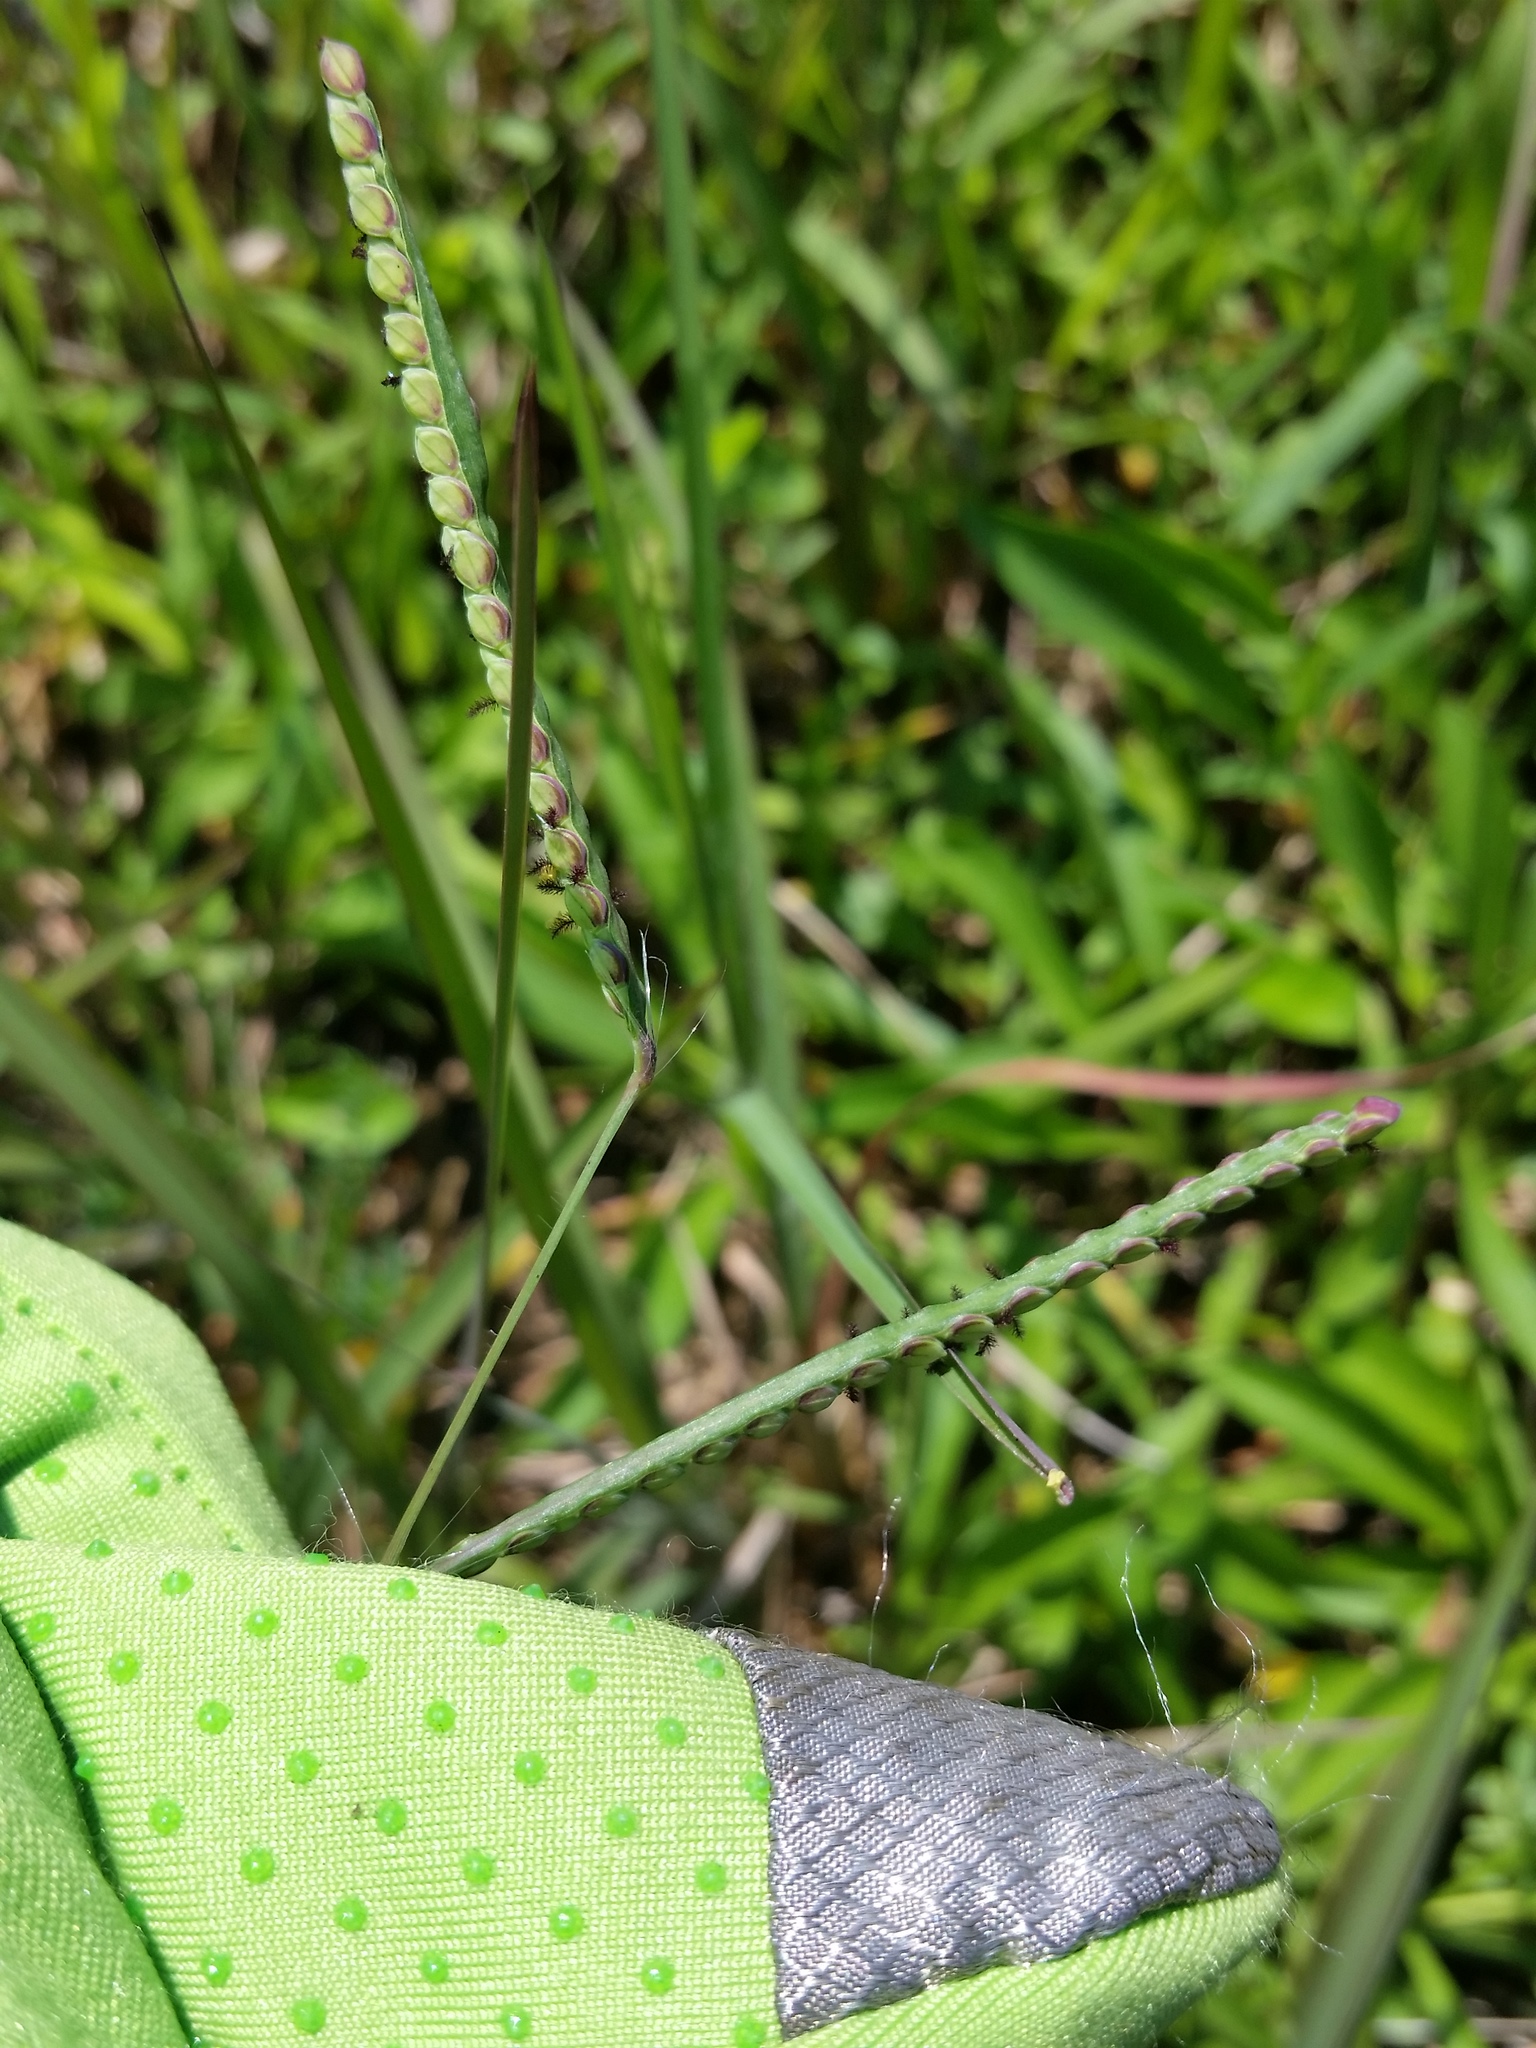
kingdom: Plantae
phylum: Tracheophyta
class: Liliopsida
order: Poales
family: Poaceae
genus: Paspalum
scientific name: Paspalum laeve
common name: Field paspalum
